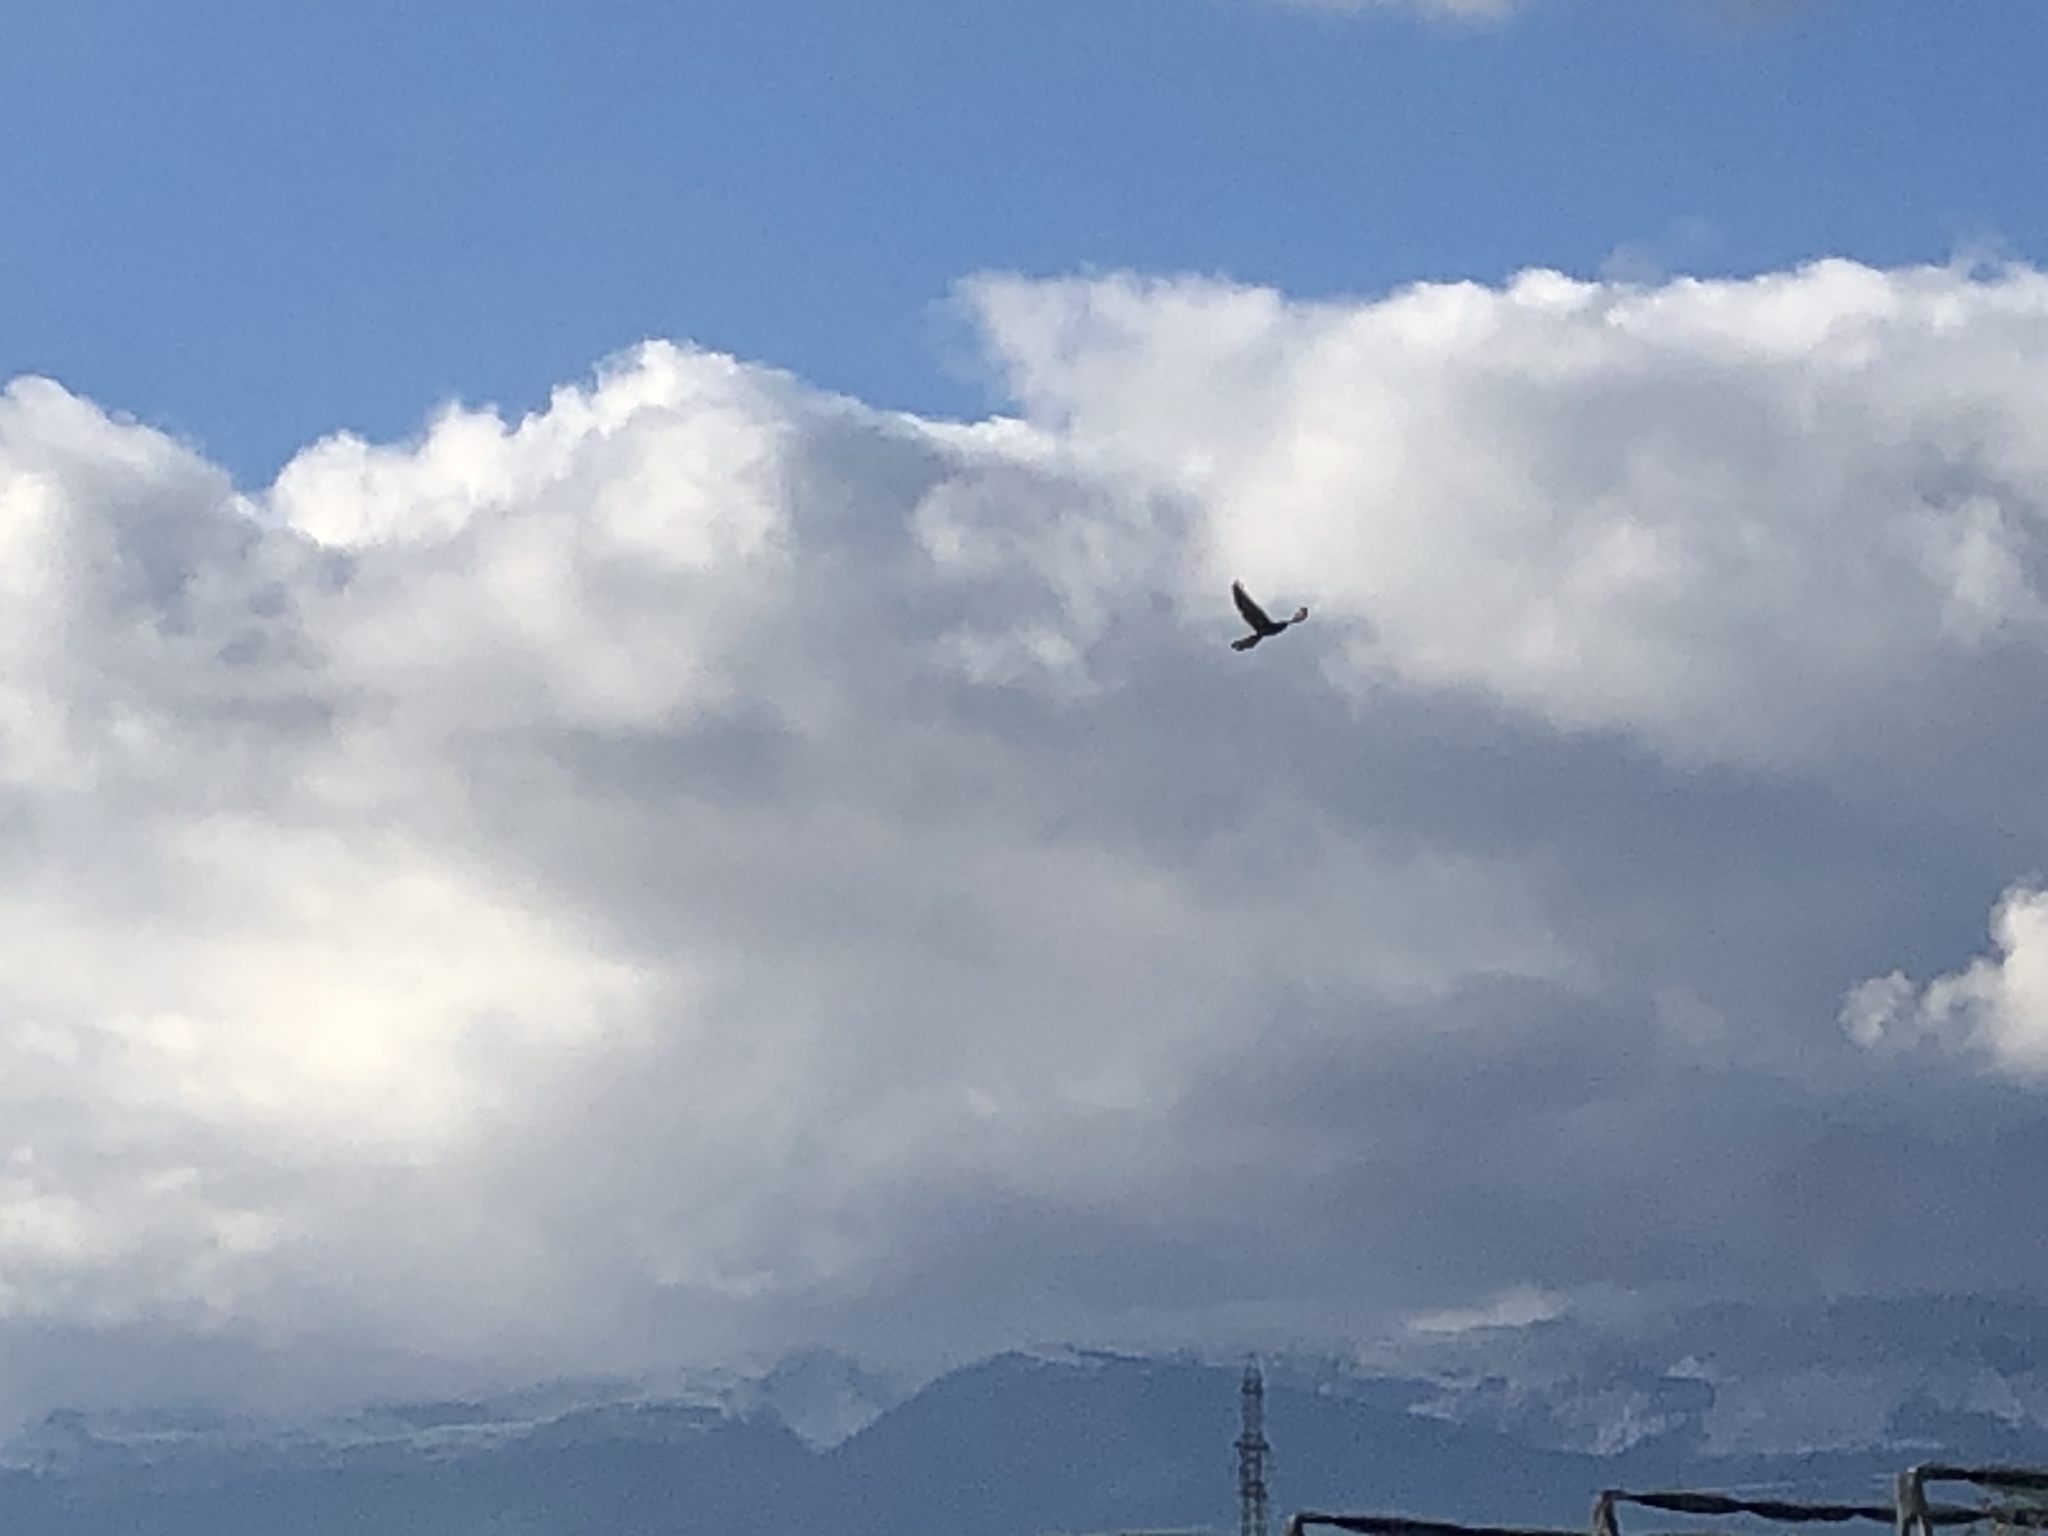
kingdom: Animalia
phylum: Chordata
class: Aves
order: Falconiformes
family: Falconidae
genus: Falco
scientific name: Falco tinnunculus
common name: Common kestrel
